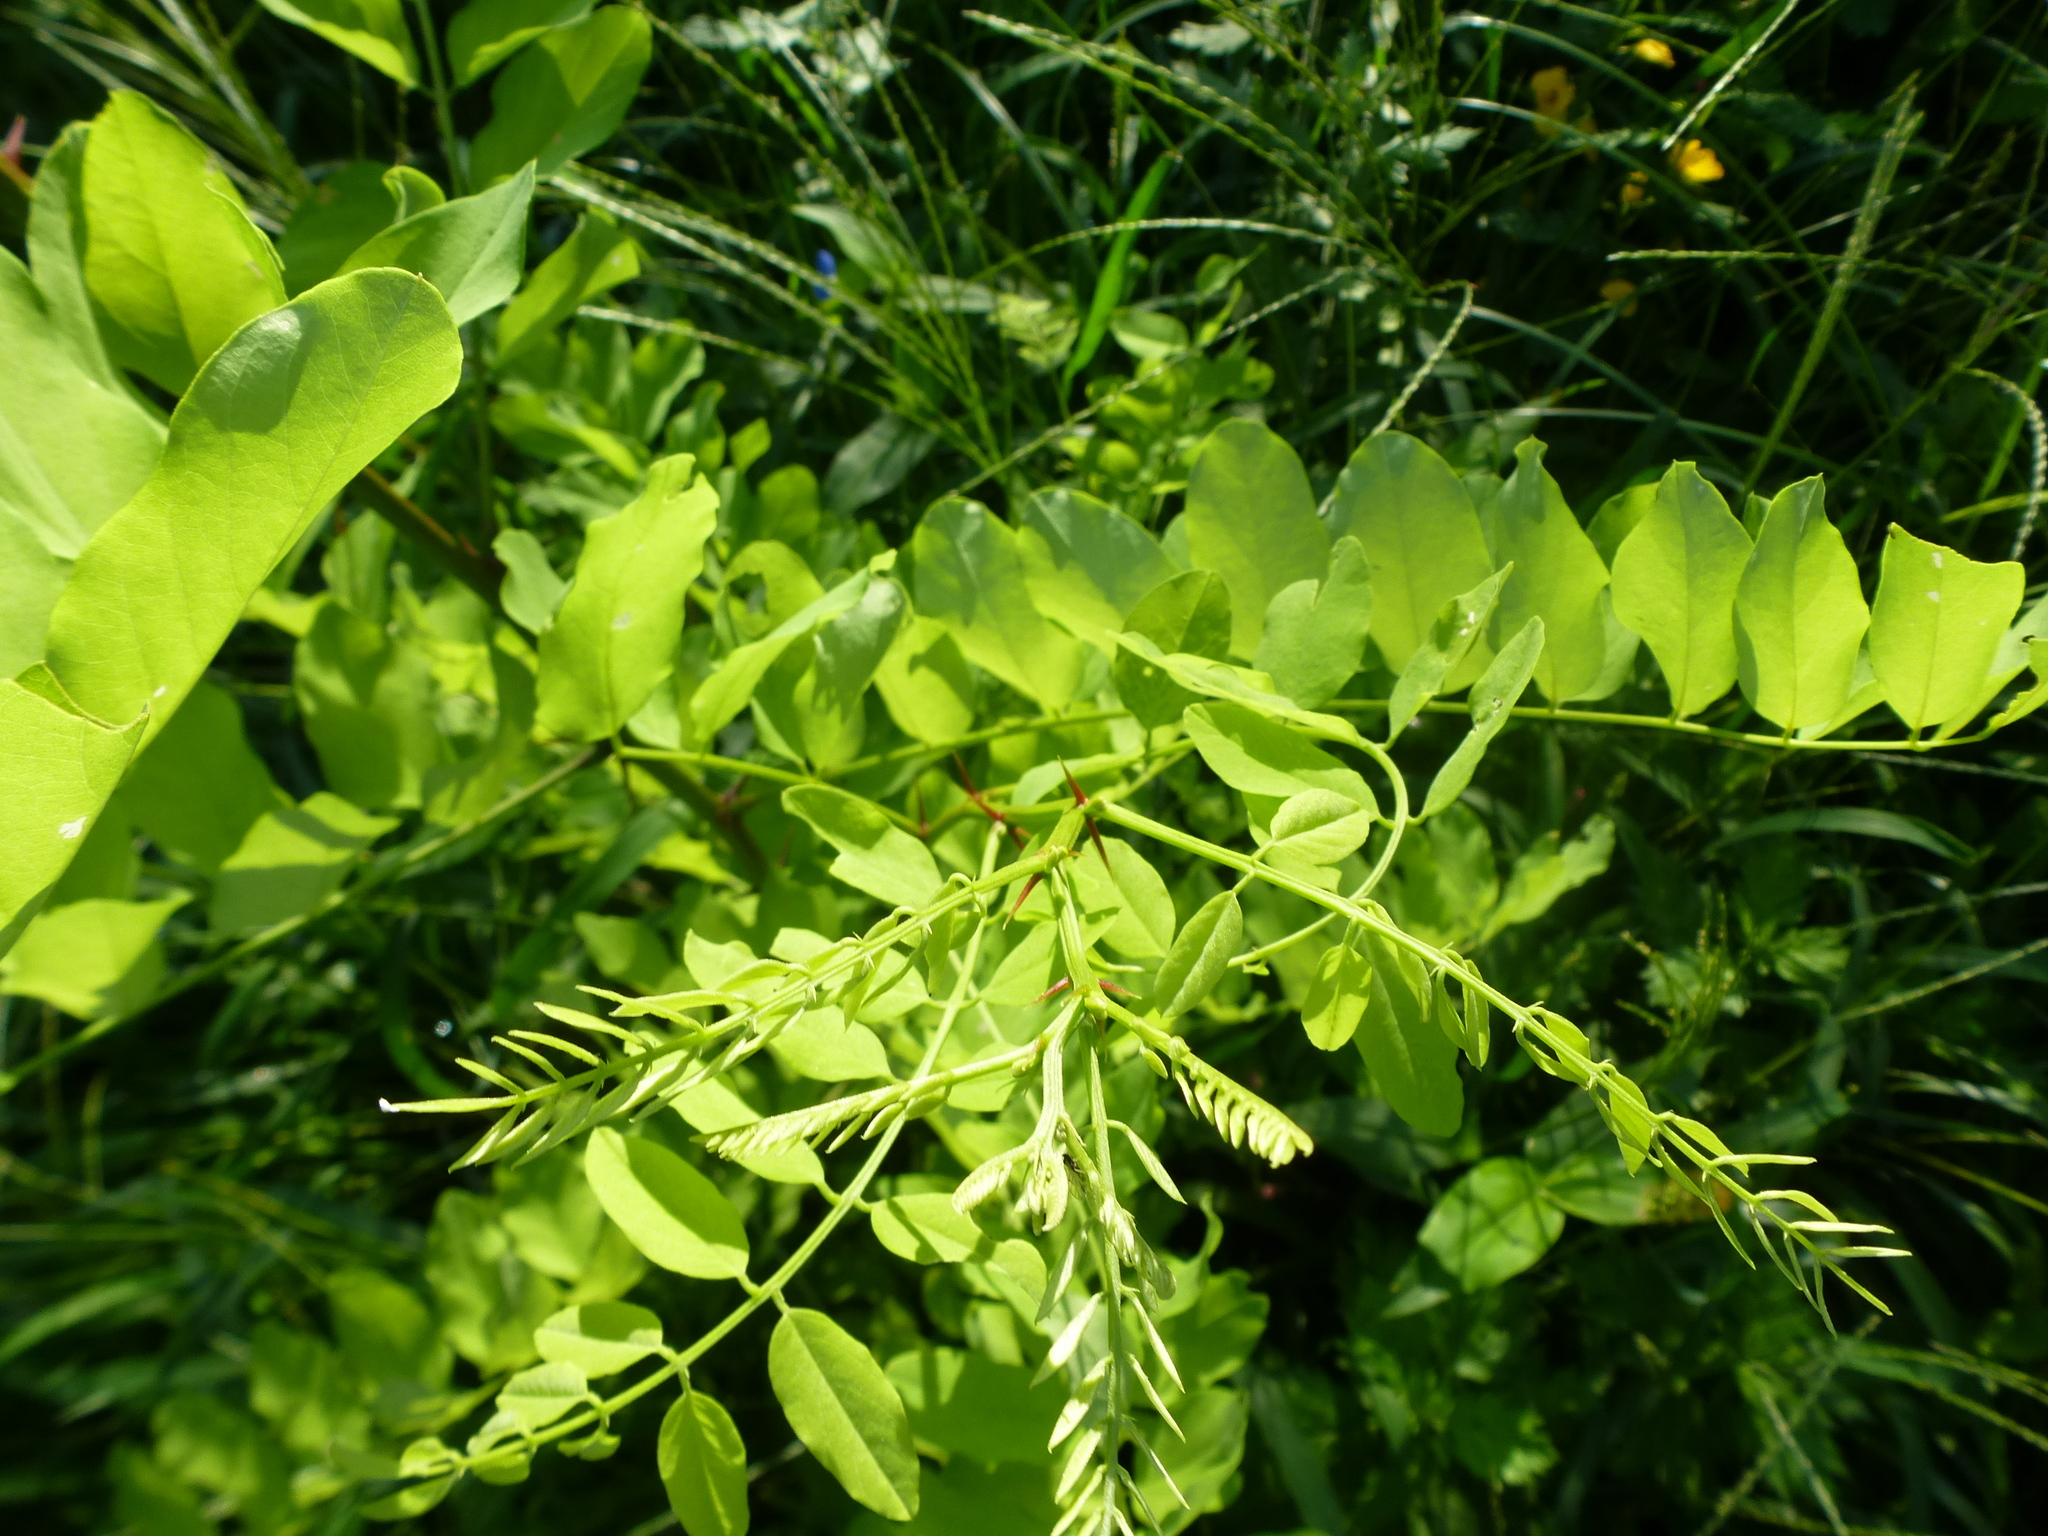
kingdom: Plantae
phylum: Tracheophyta
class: Magnoliopsida
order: Fabales
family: Fabaceae
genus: Robinia
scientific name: Robinia pseudoacacia
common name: Black locust
